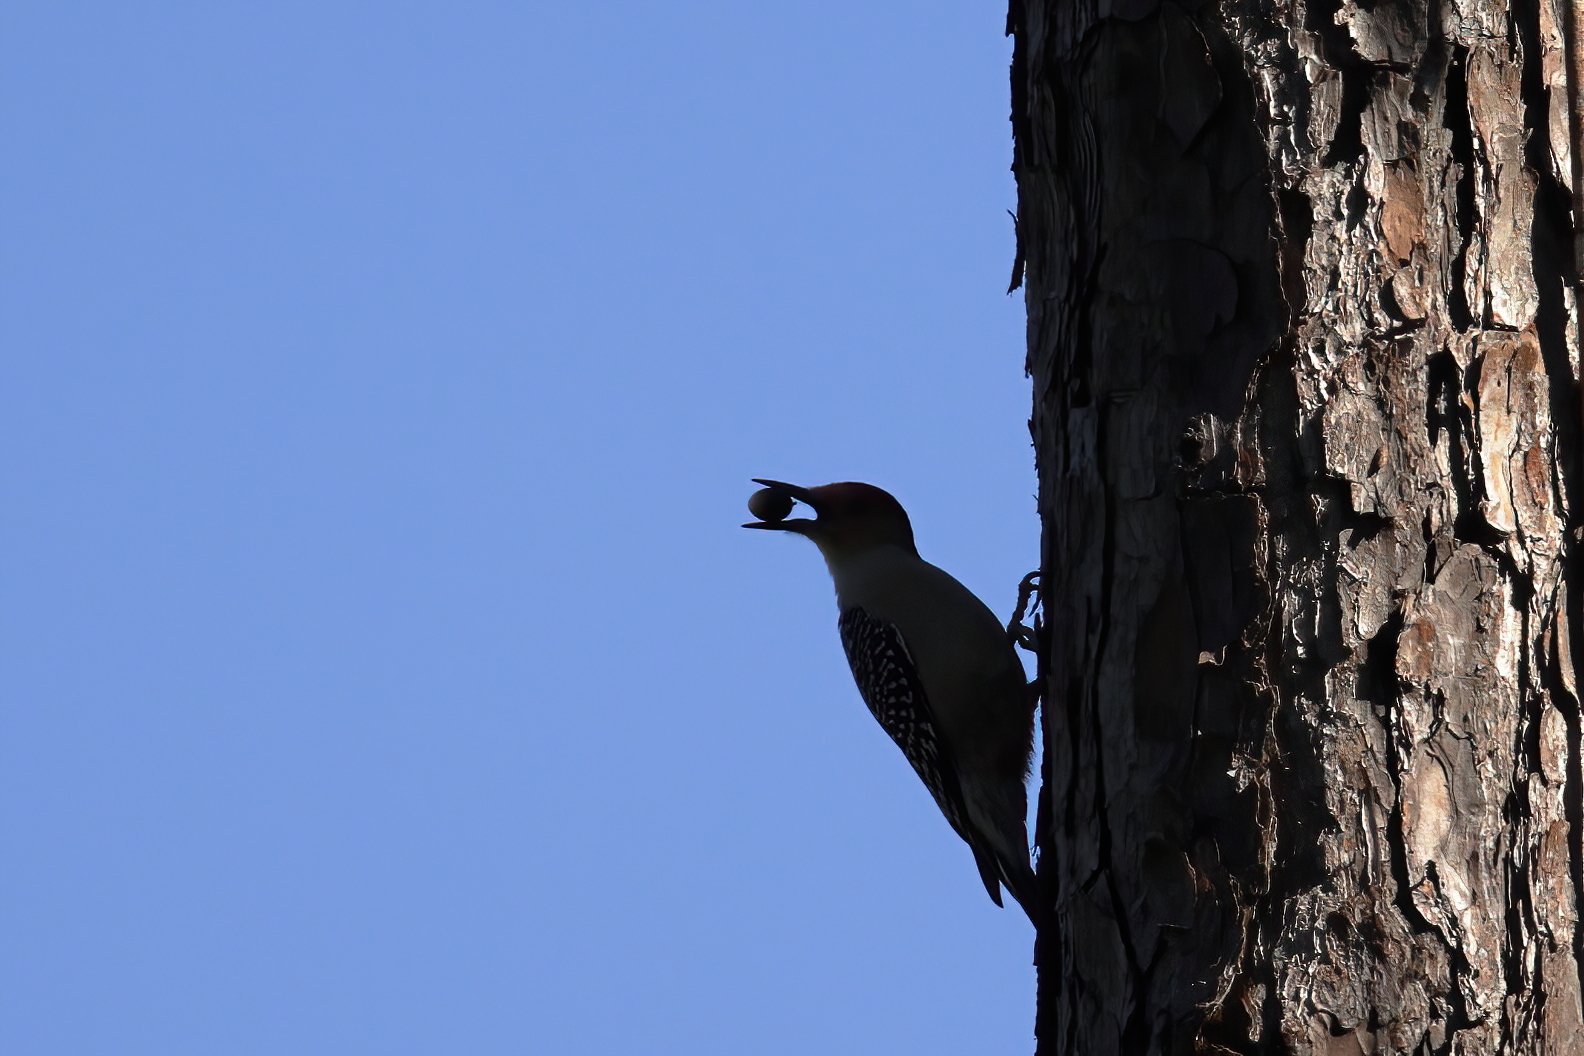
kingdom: Animalia
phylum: Chordata
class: Aves
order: Piciformes
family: Picidae
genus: Melanerpes
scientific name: Melanerpes carolinus
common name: Red-bellied woodpecker
